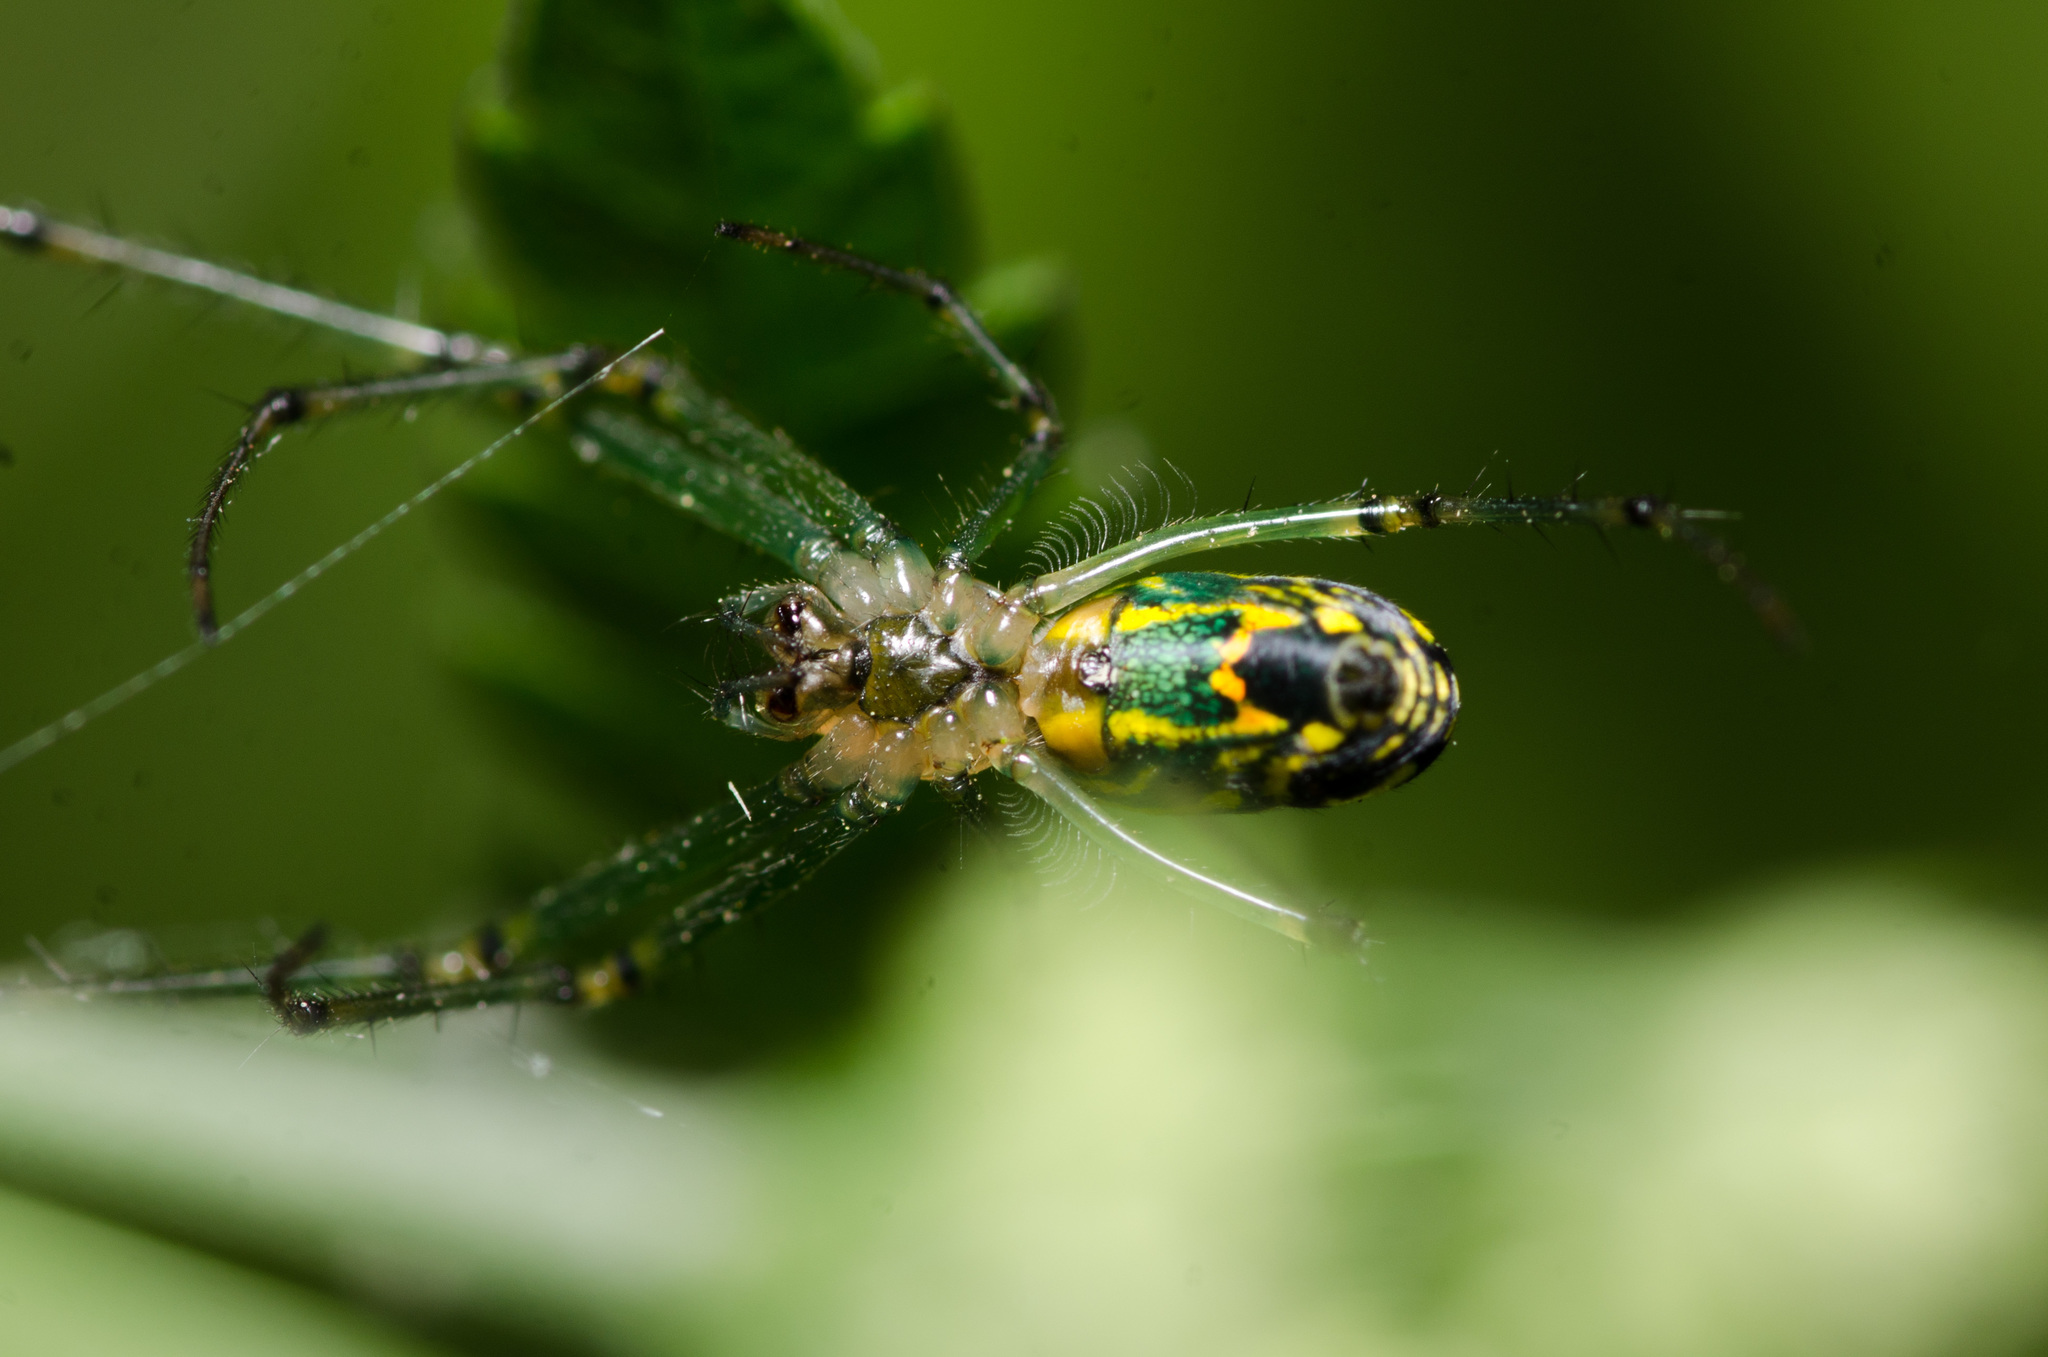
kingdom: Animalia
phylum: Arthropoda
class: Arachnida
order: Araneae
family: Tetragnathidae
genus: Leucauge
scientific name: Leucauge venusta
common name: Longjawed orb weavers
